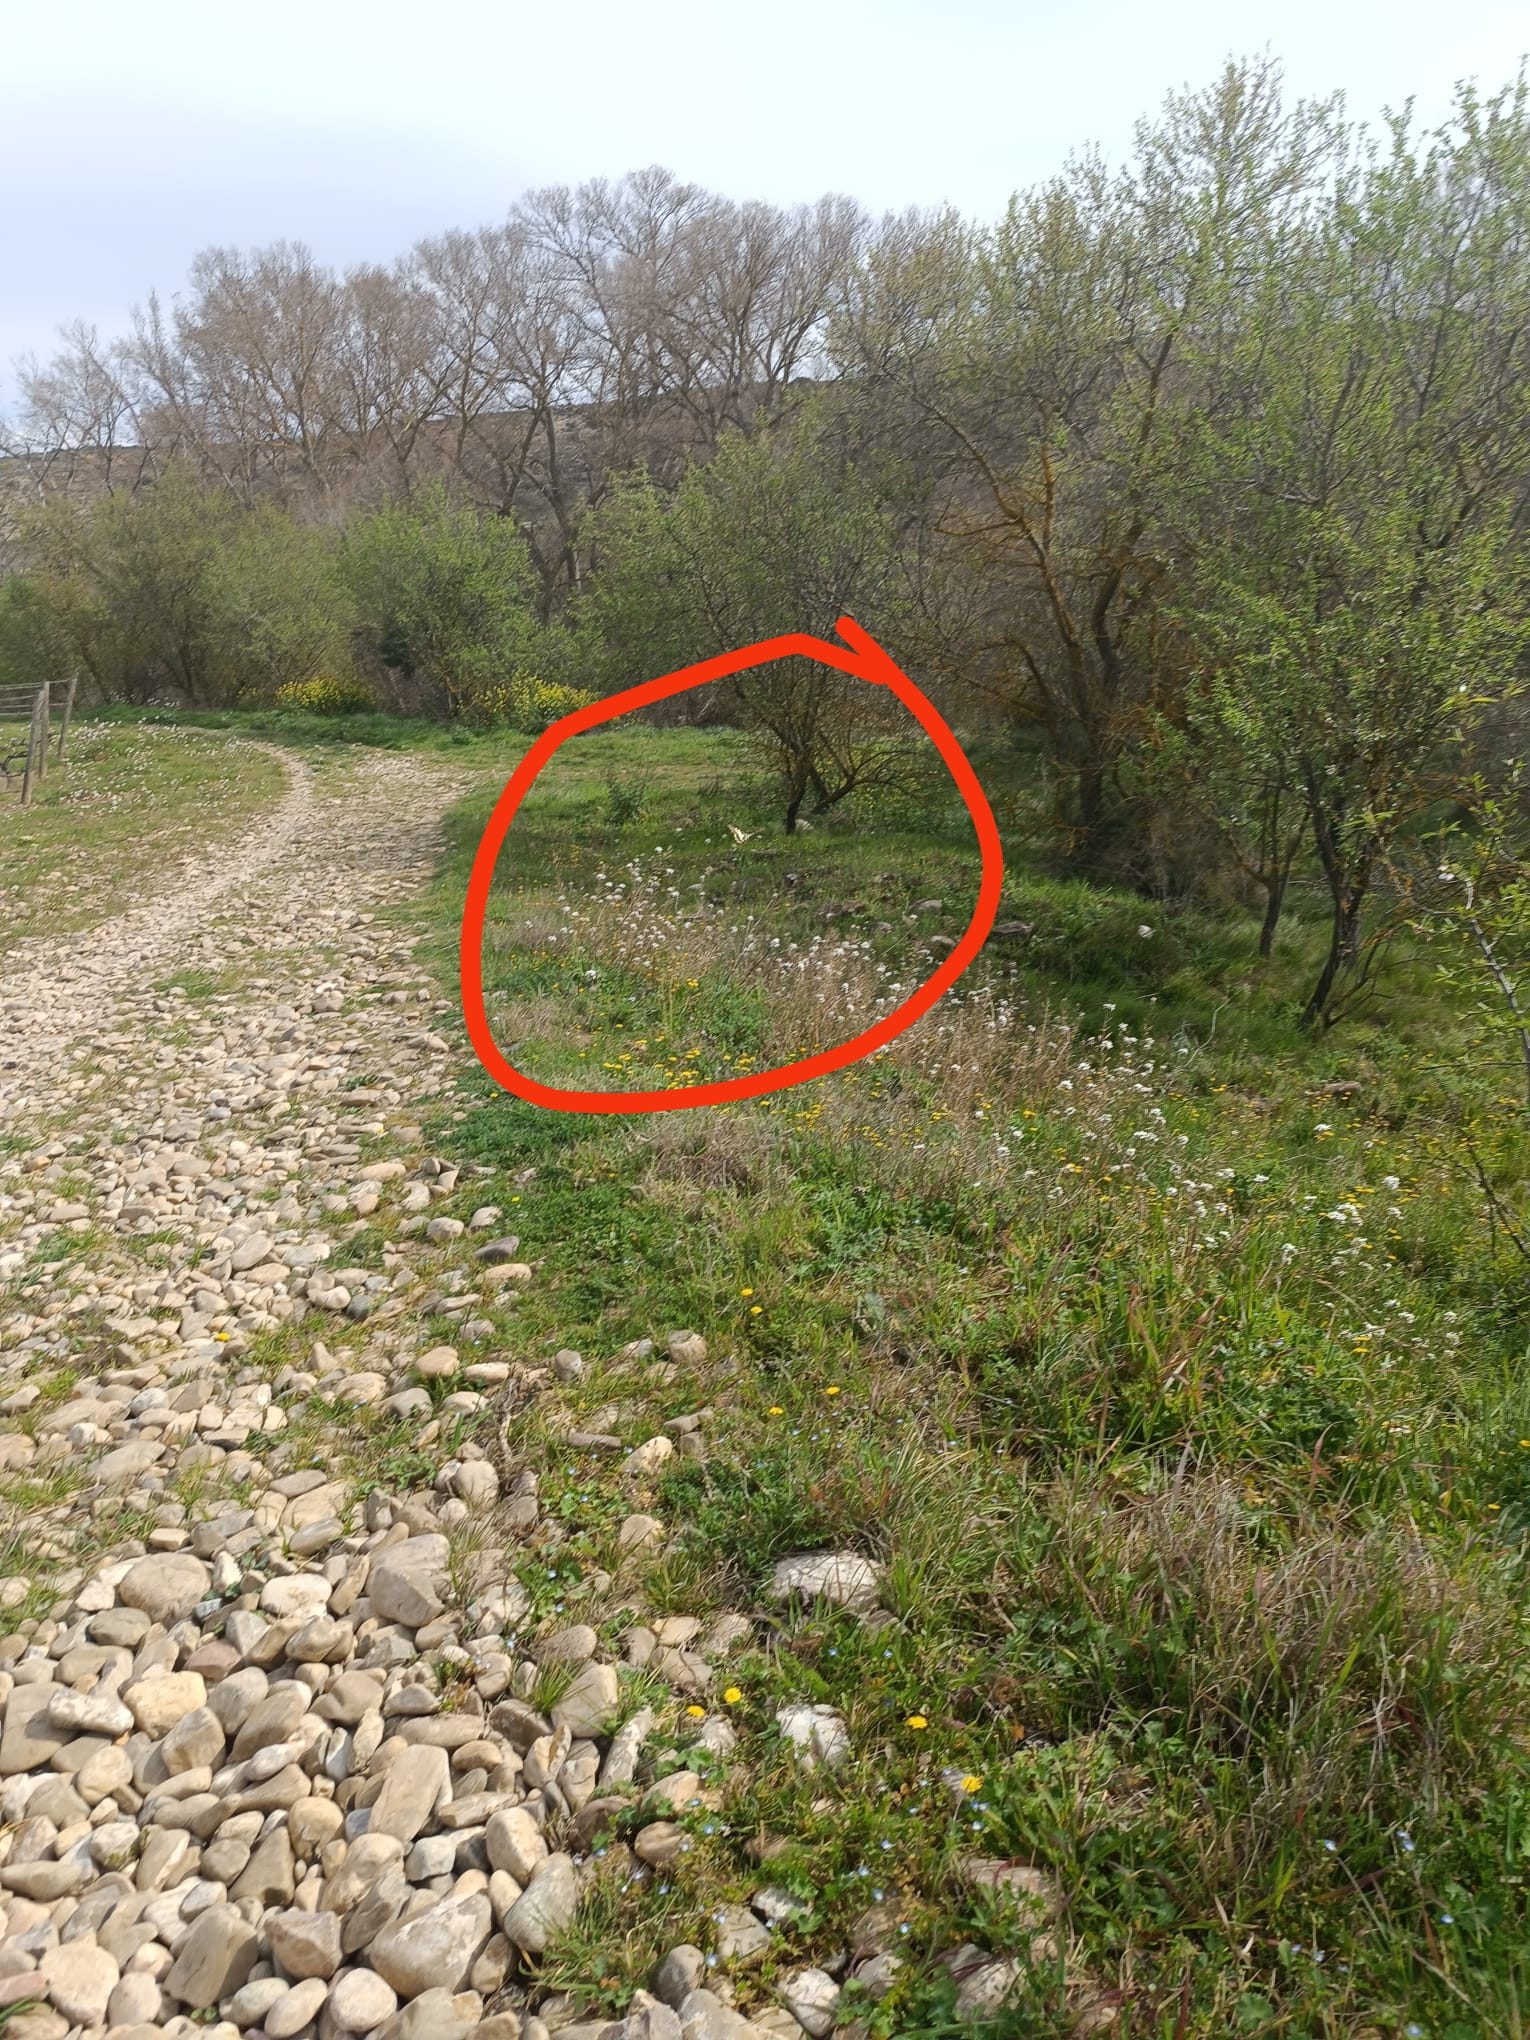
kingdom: Animalia
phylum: Arthropoda
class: Insecta
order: Lepidoptera
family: Papilionidae
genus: Papilio
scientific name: Papilio machaon
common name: Swallowtail
